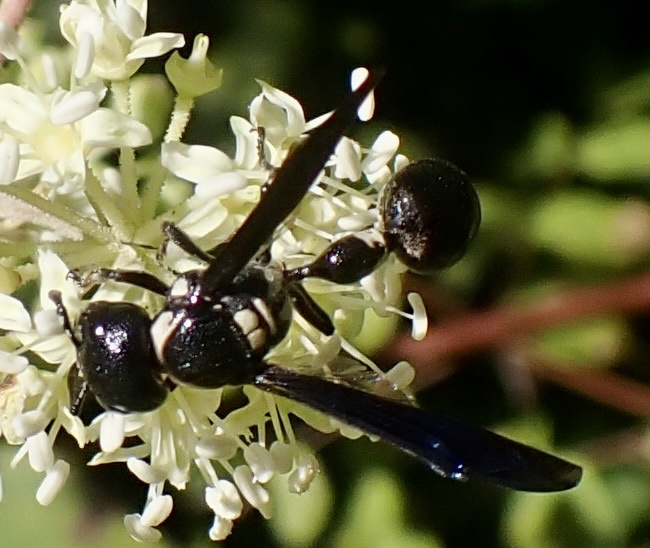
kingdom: Animalia
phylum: Arthropoda
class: Insecta
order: Hymenoptera
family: Eumenidae
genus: Zethus
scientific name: Zethus spinipes
